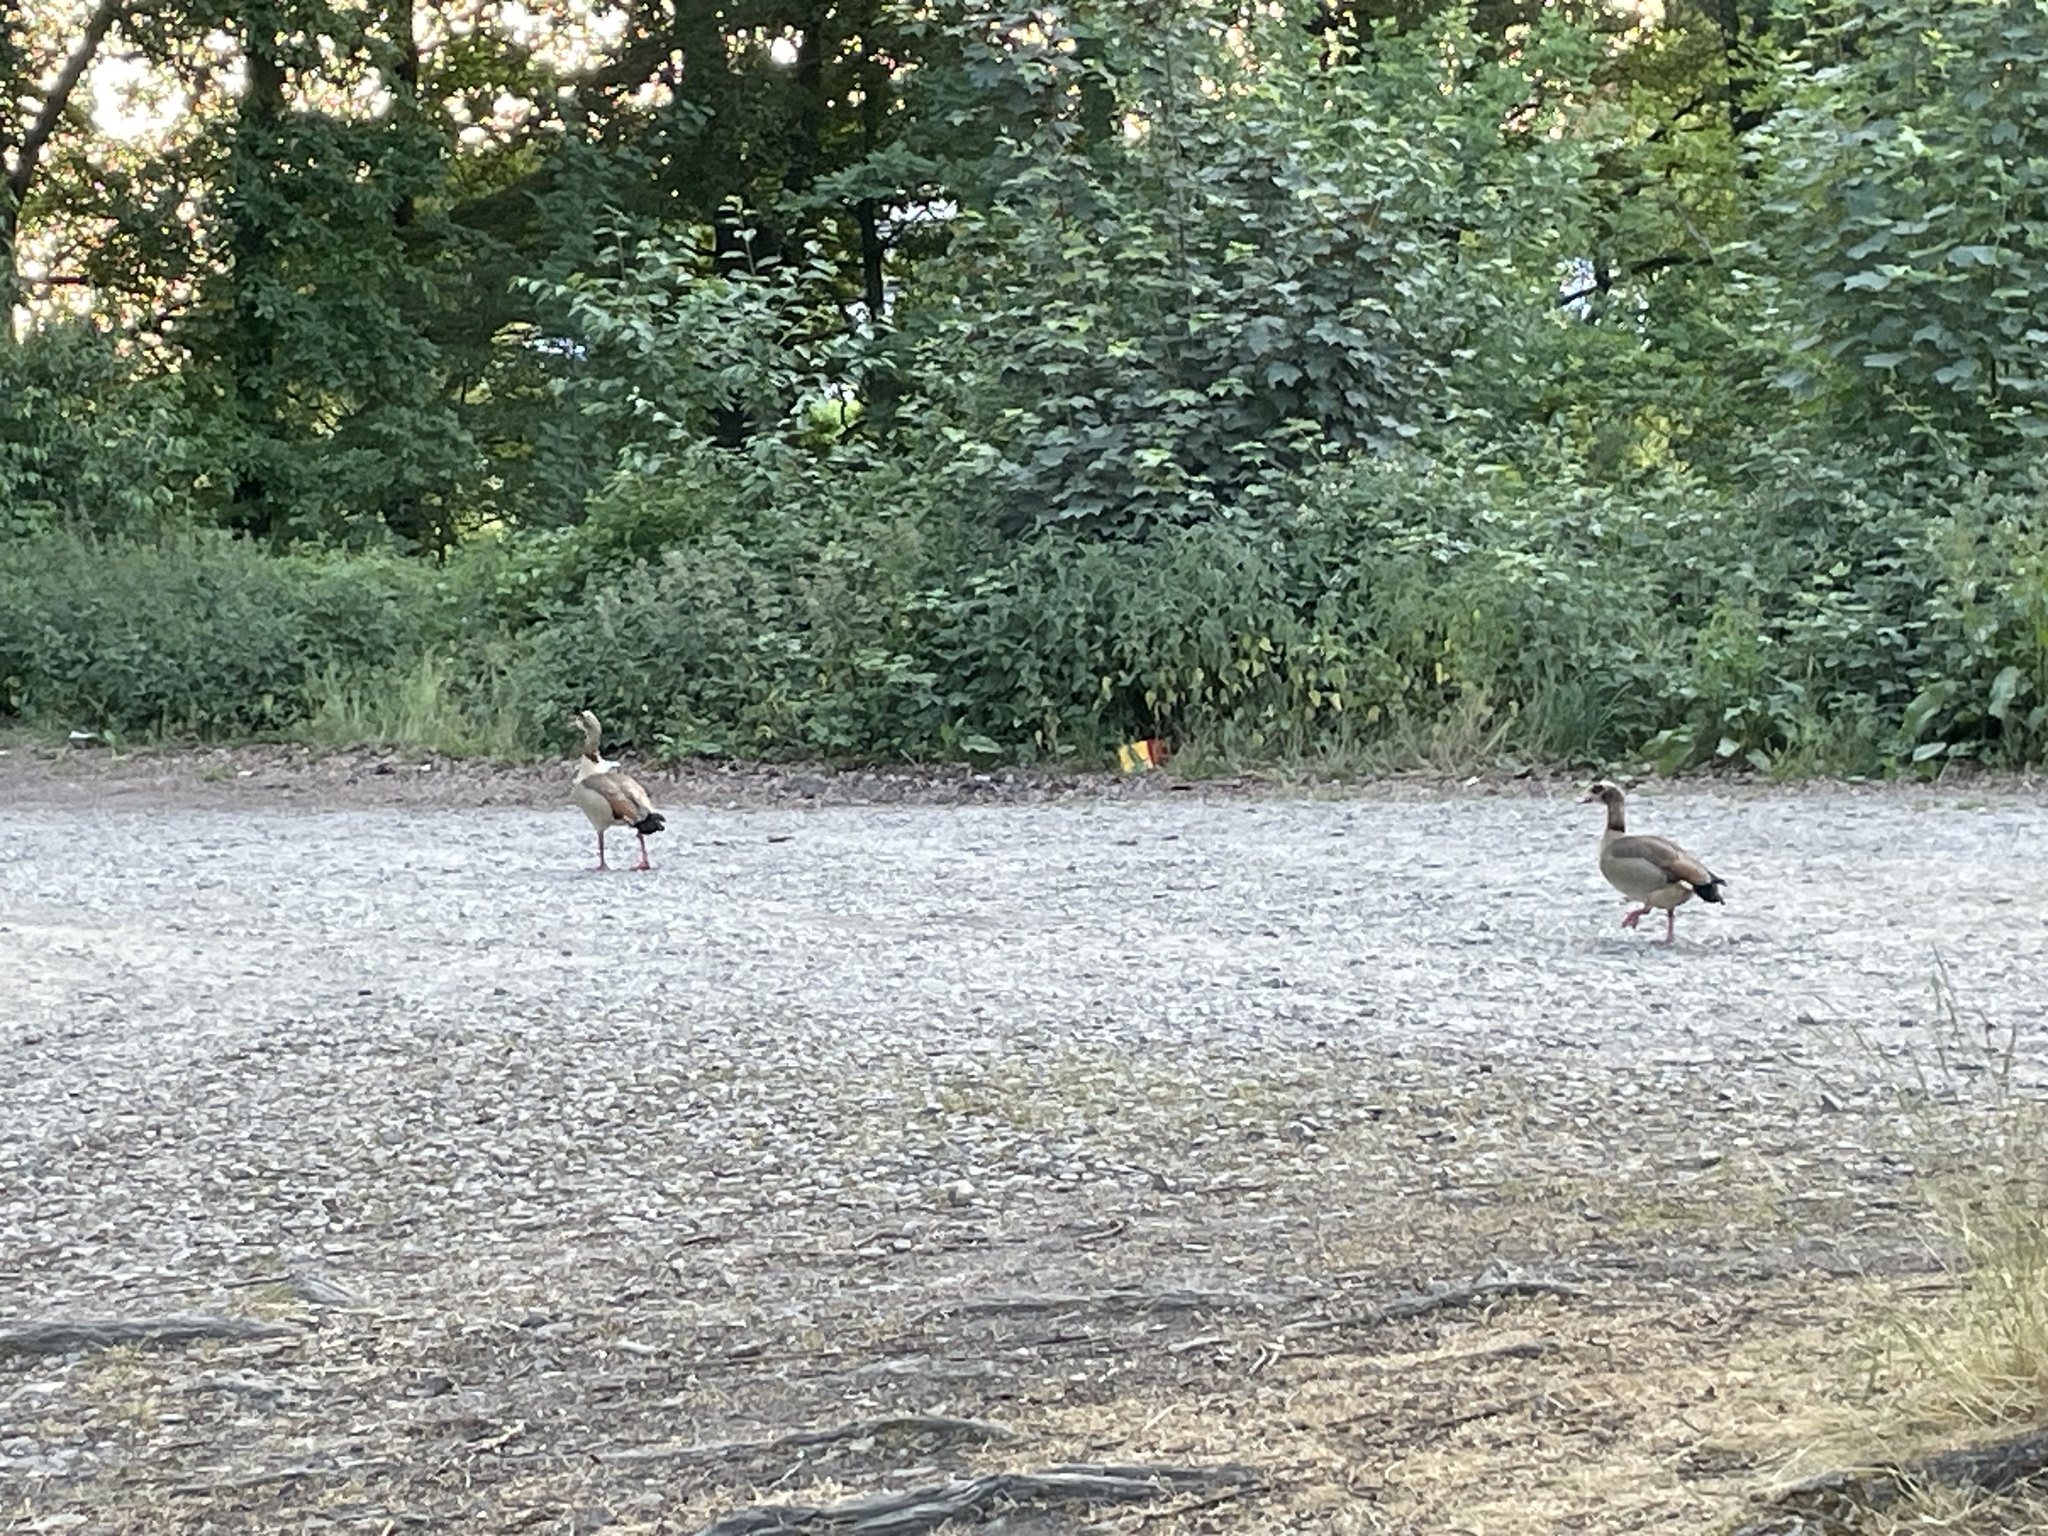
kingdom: Animalia
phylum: Chordata
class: Aves
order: Anseriformes
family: Anatidae
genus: Alopochen
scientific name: Alopochen aegyptiaca
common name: Egyptian goose
